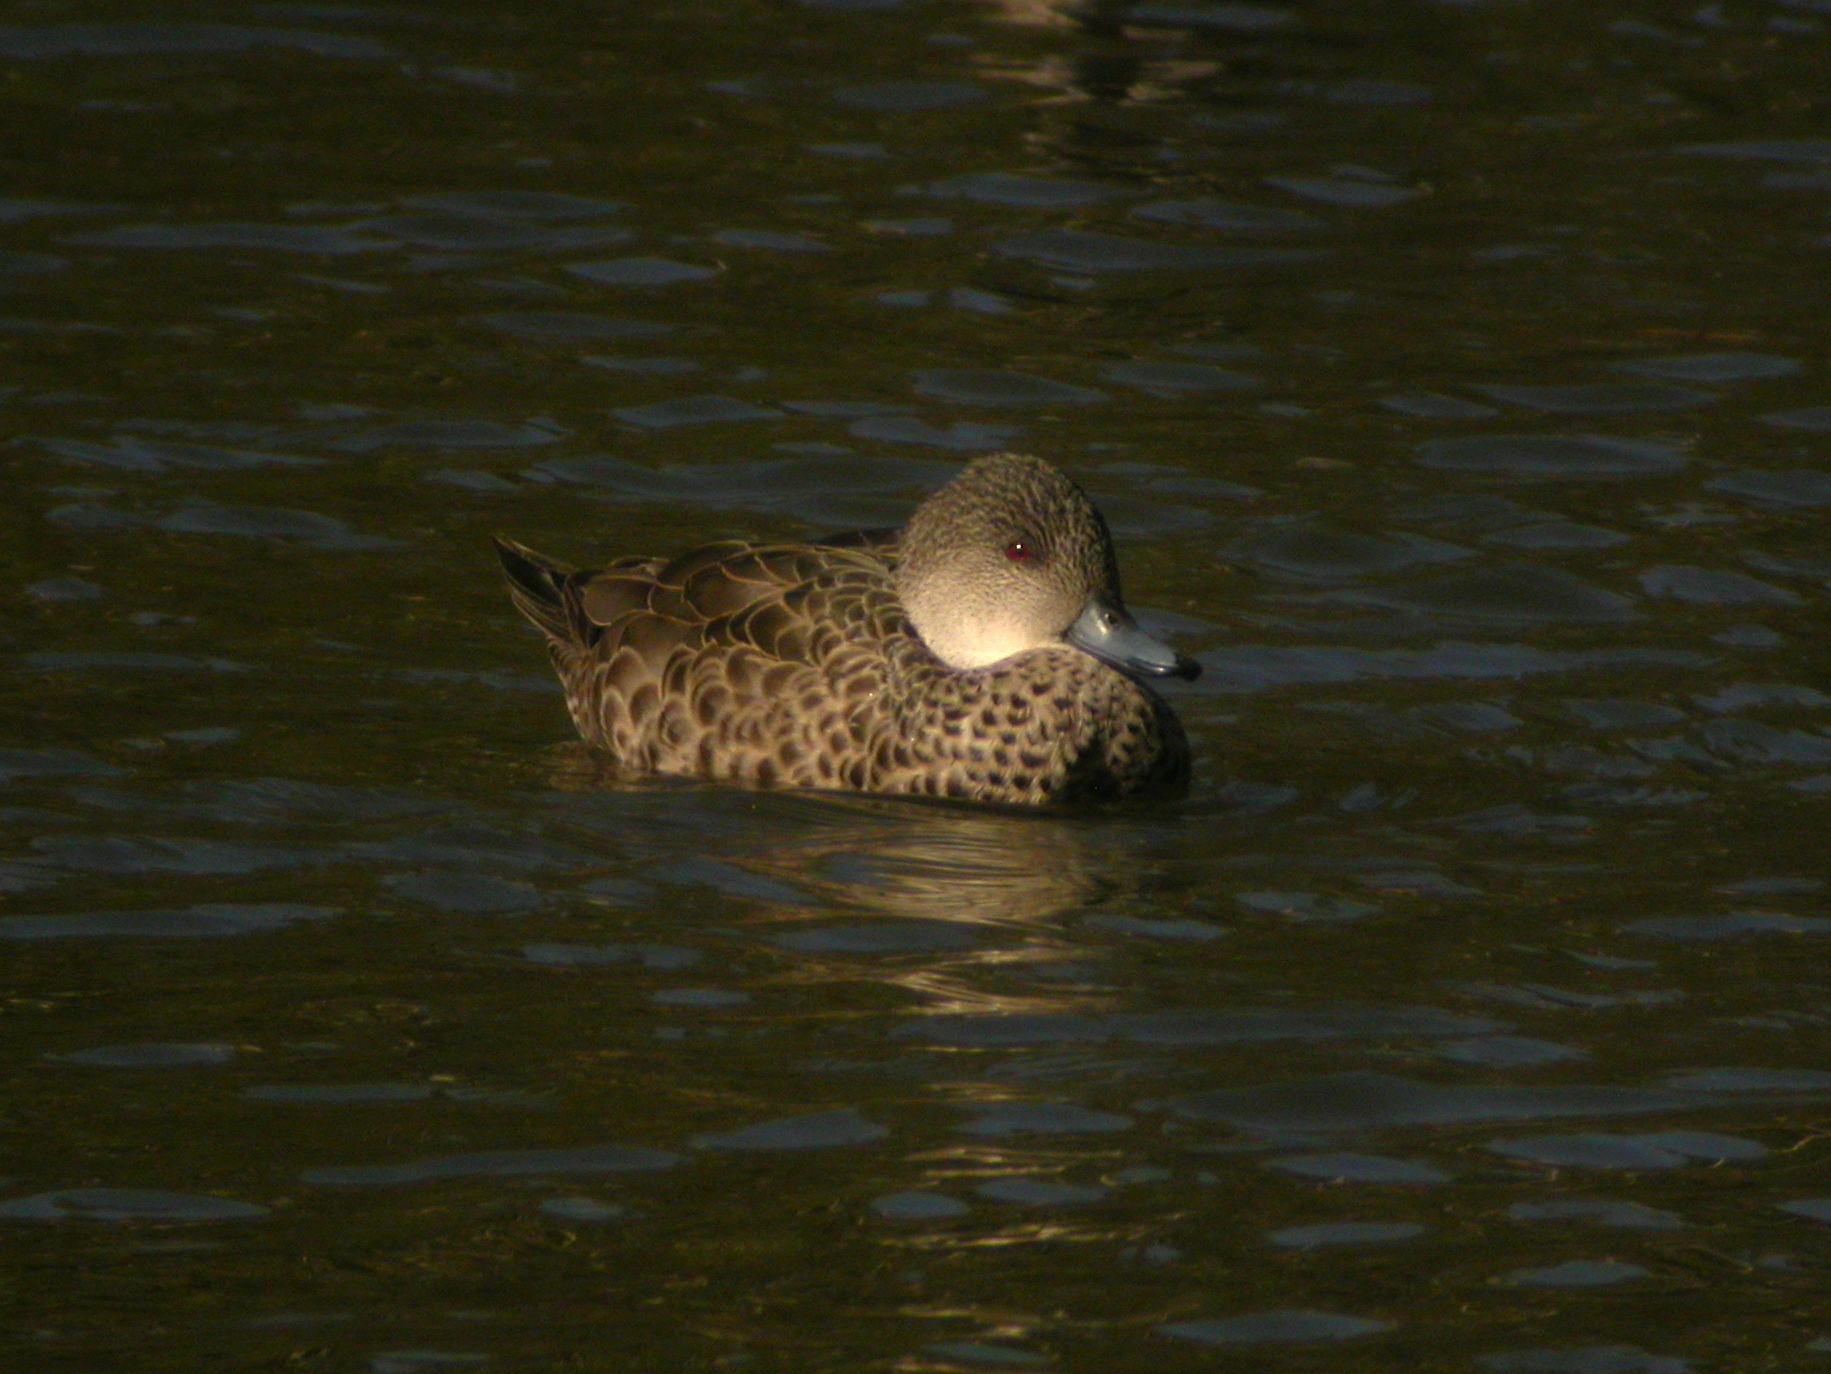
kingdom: Animalia
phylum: Chordata
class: Aves
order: Anseriformes
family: Anatidae
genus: Anas
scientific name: Anas gracilis
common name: Grey teal
